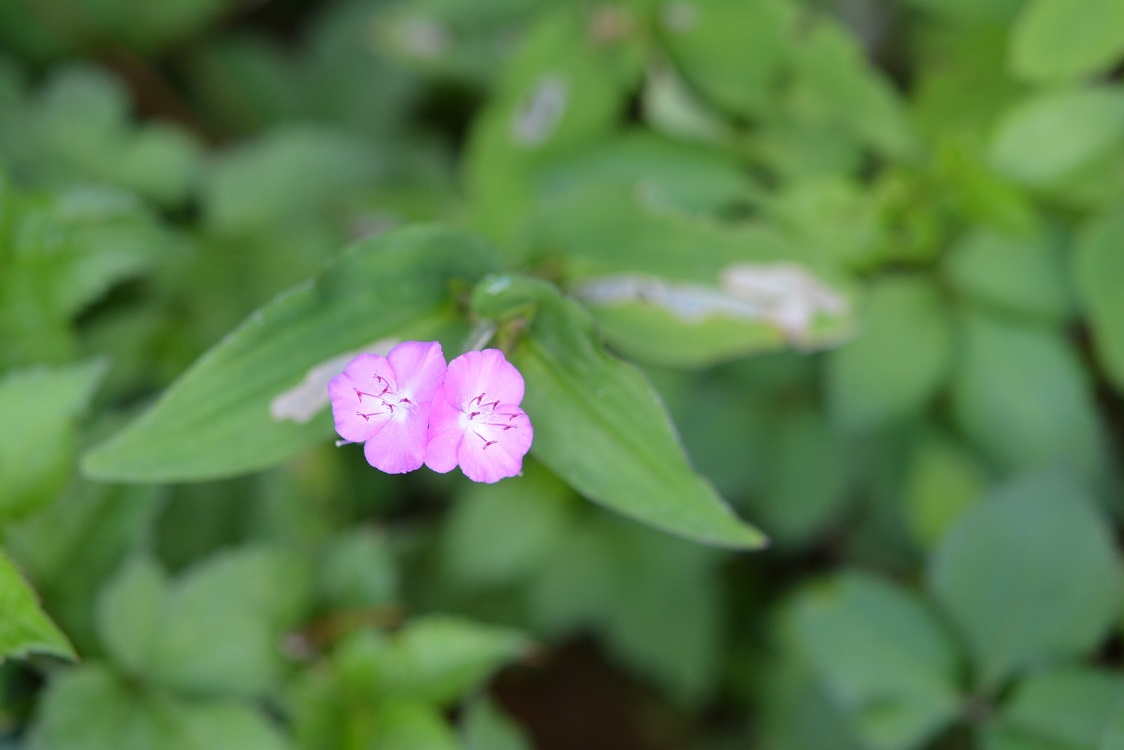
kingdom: Plantae
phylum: Tracheophyta
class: Liliopsida
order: Commelinales
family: Commelinaceae
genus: Tradescantia
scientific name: Tradescantia commelinoides
